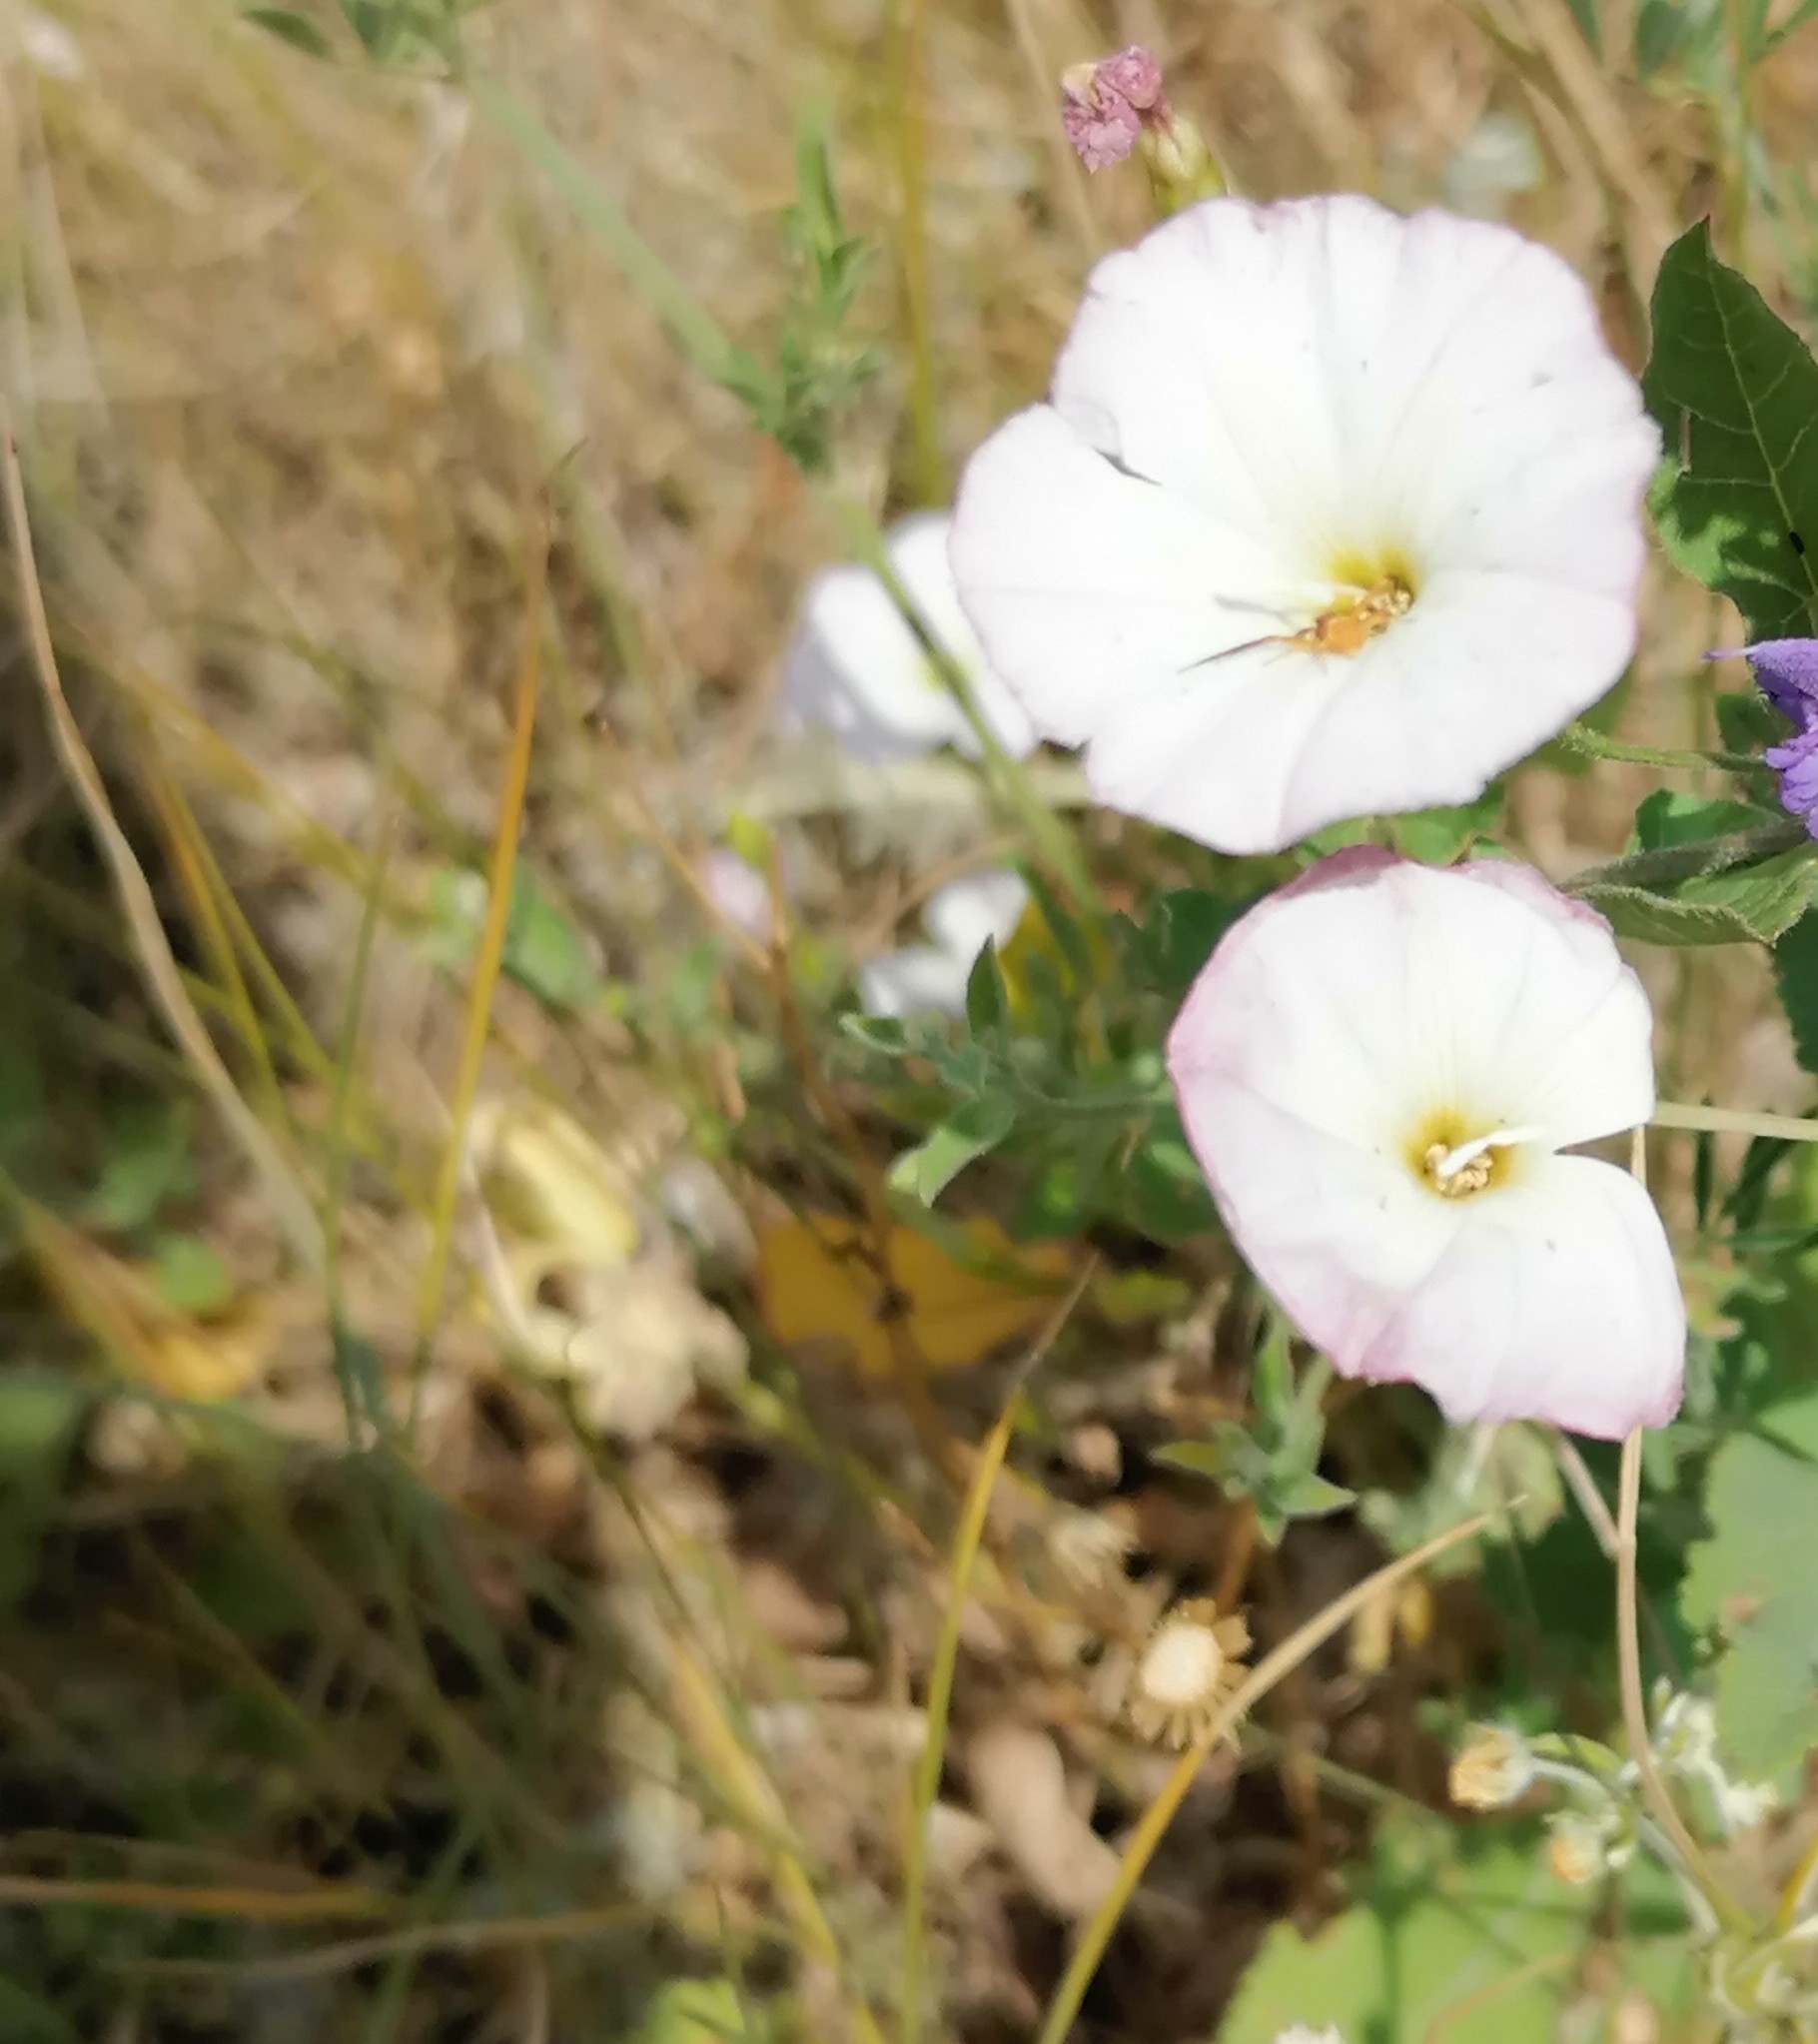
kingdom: Plantae
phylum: Tracheophyta
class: Magnoliopsida
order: Solanales
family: Convolvulaceae
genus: Convolvulus
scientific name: Convolvulus arvensis
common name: Field bindweed
